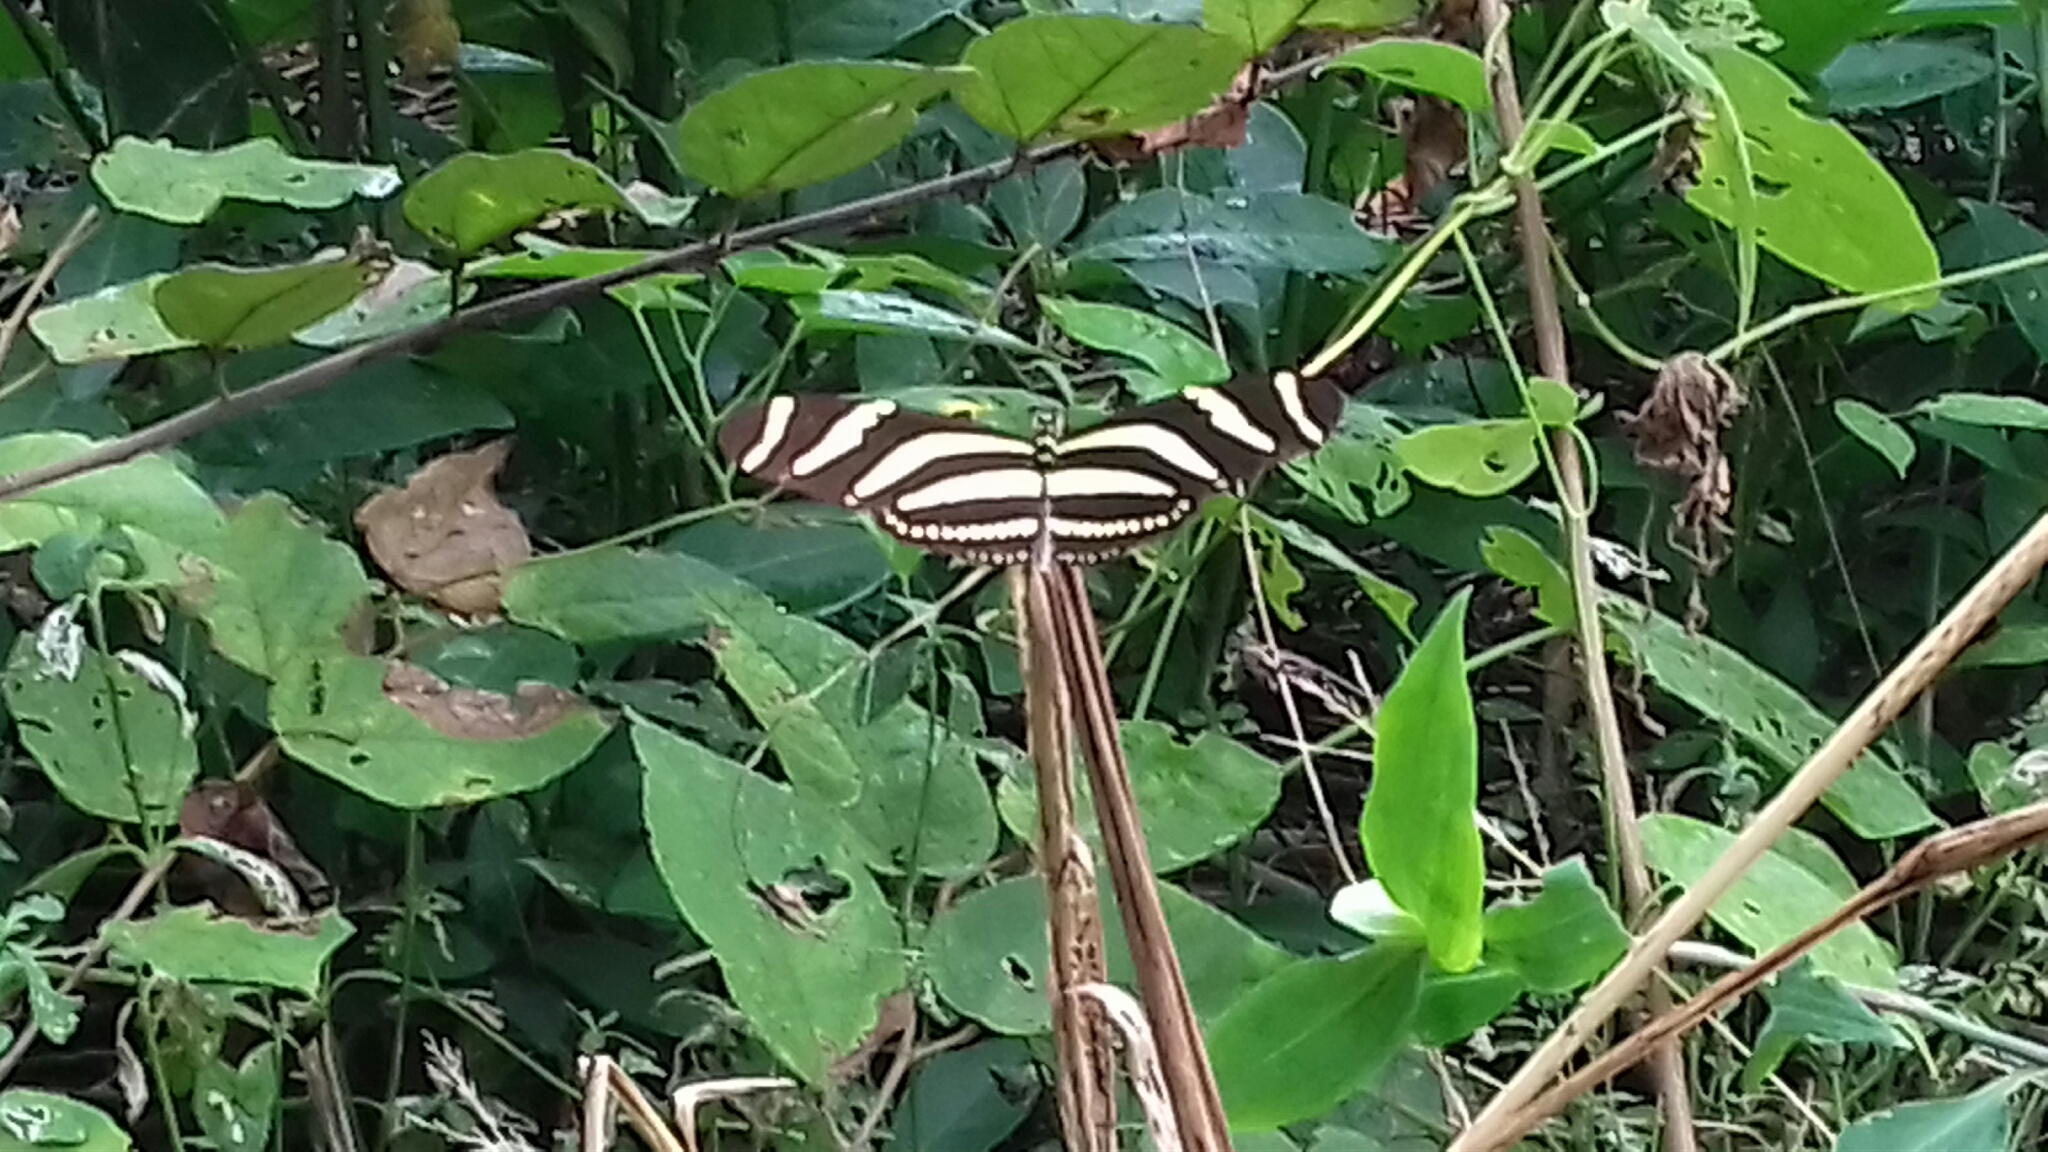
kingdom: Animalia
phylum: Arthropoda
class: Insecta
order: Lepidoptera
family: Nymphalidae
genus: Heliconius
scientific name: Heliconius charithonia
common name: Zebra long wing
